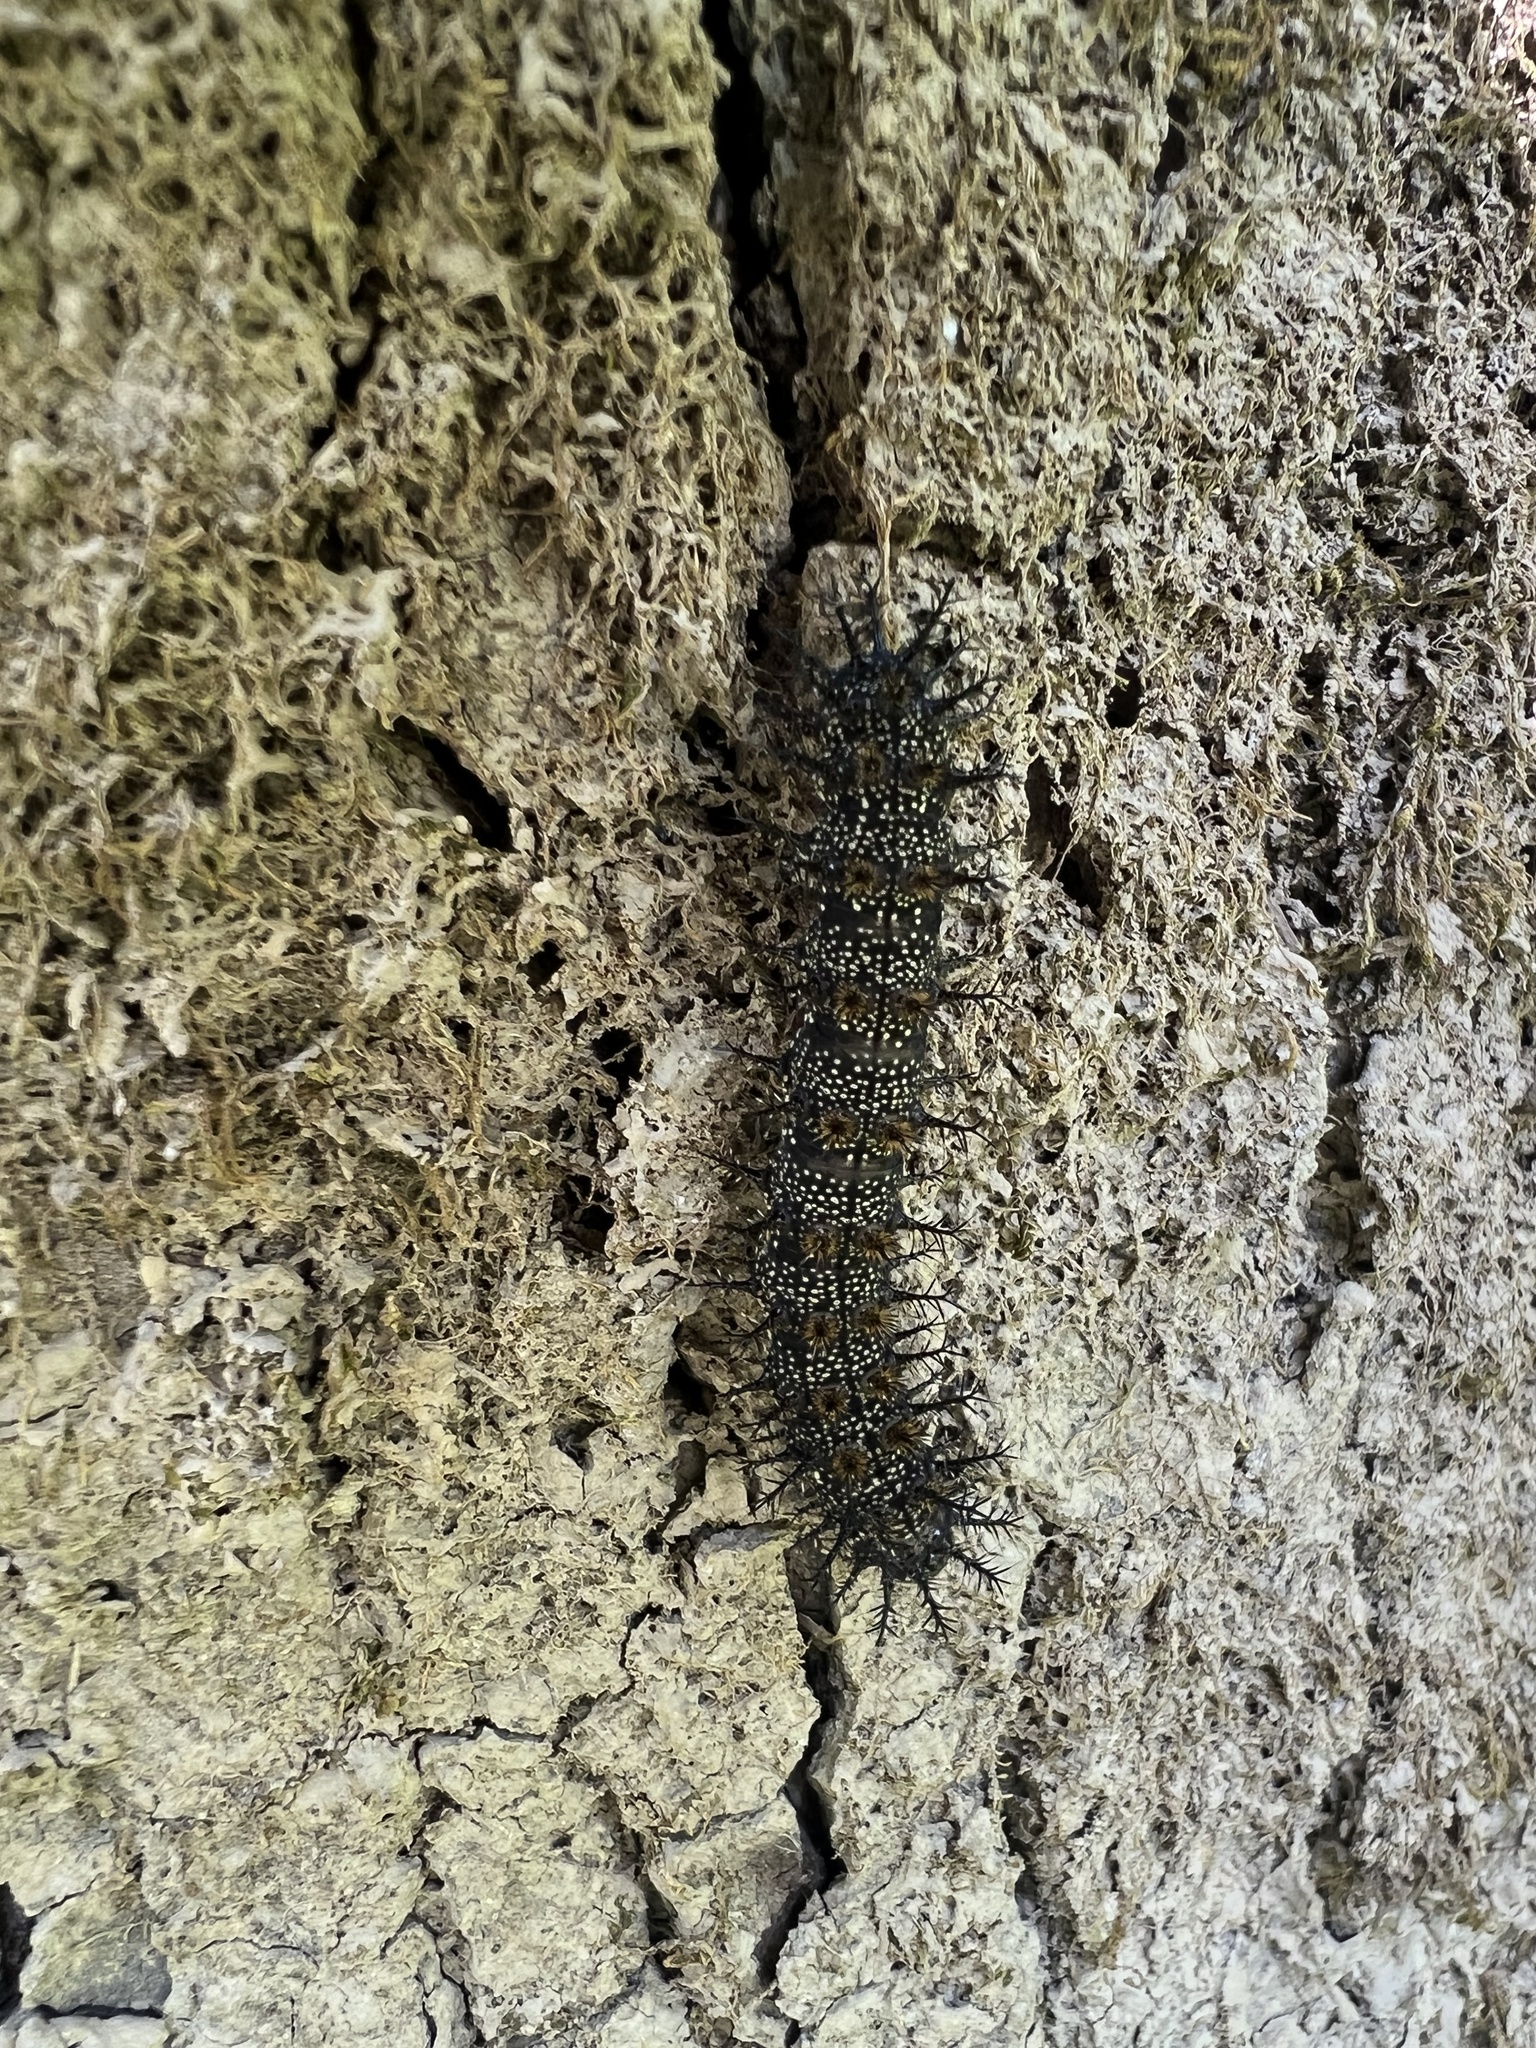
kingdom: Animalia
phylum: Arthropoda
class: Insecta
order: Lepidoptera
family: Saturniidae
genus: Hemileuca
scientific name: Hemileuca maia
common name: Eastern buckmoth
